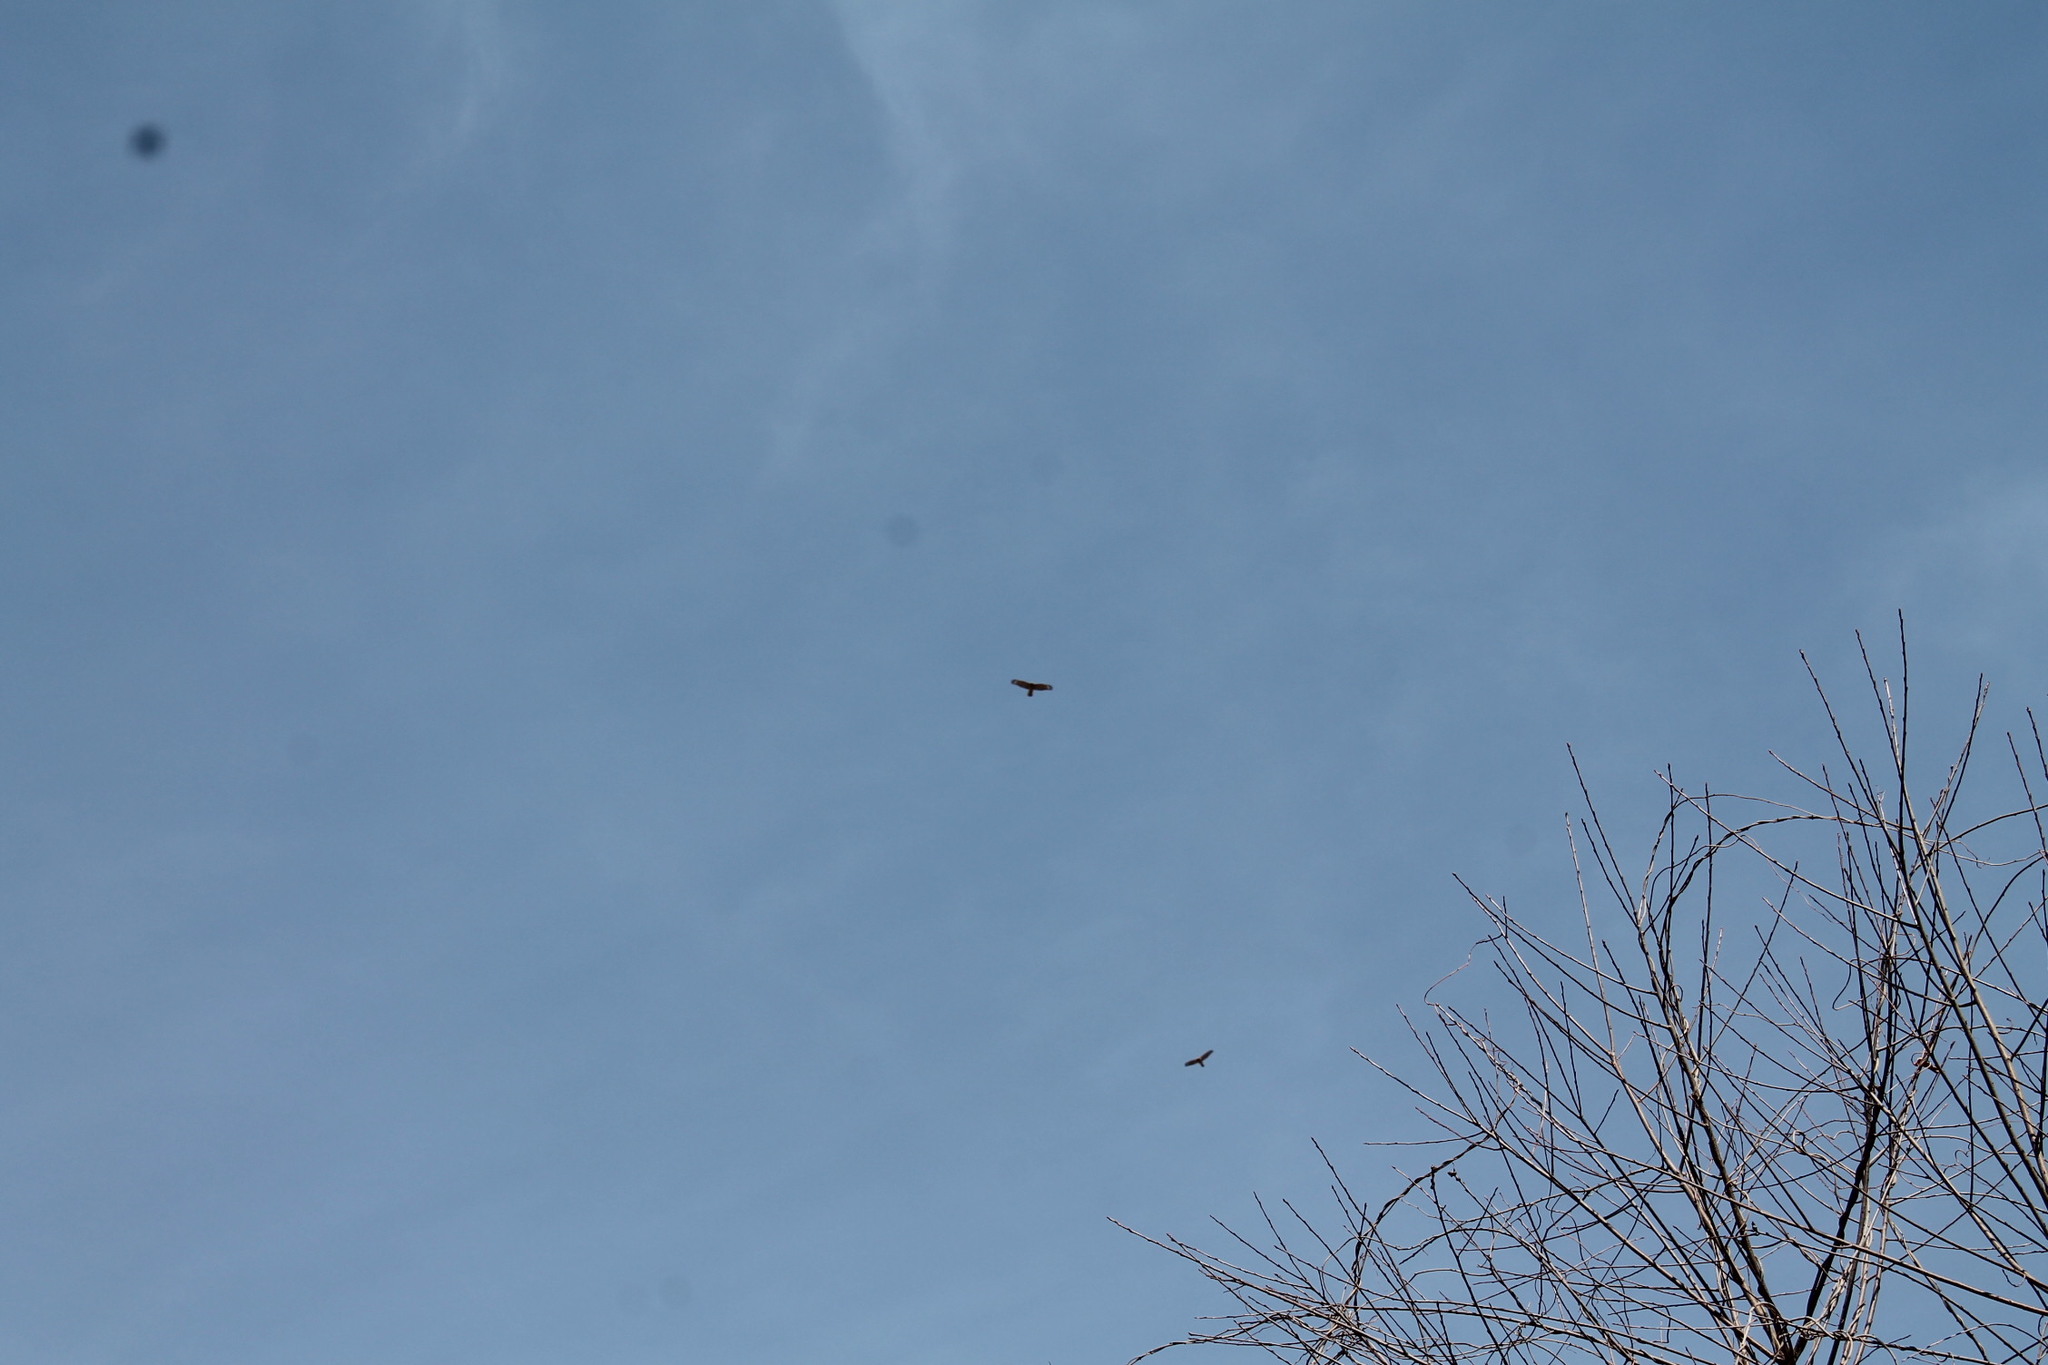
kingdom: Animalia
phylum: Chordata
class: Aves
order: Accipitriformes
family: Accipitridae
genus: Buteo
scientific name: Buteo lineatus
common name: Red-shouldered hawk
